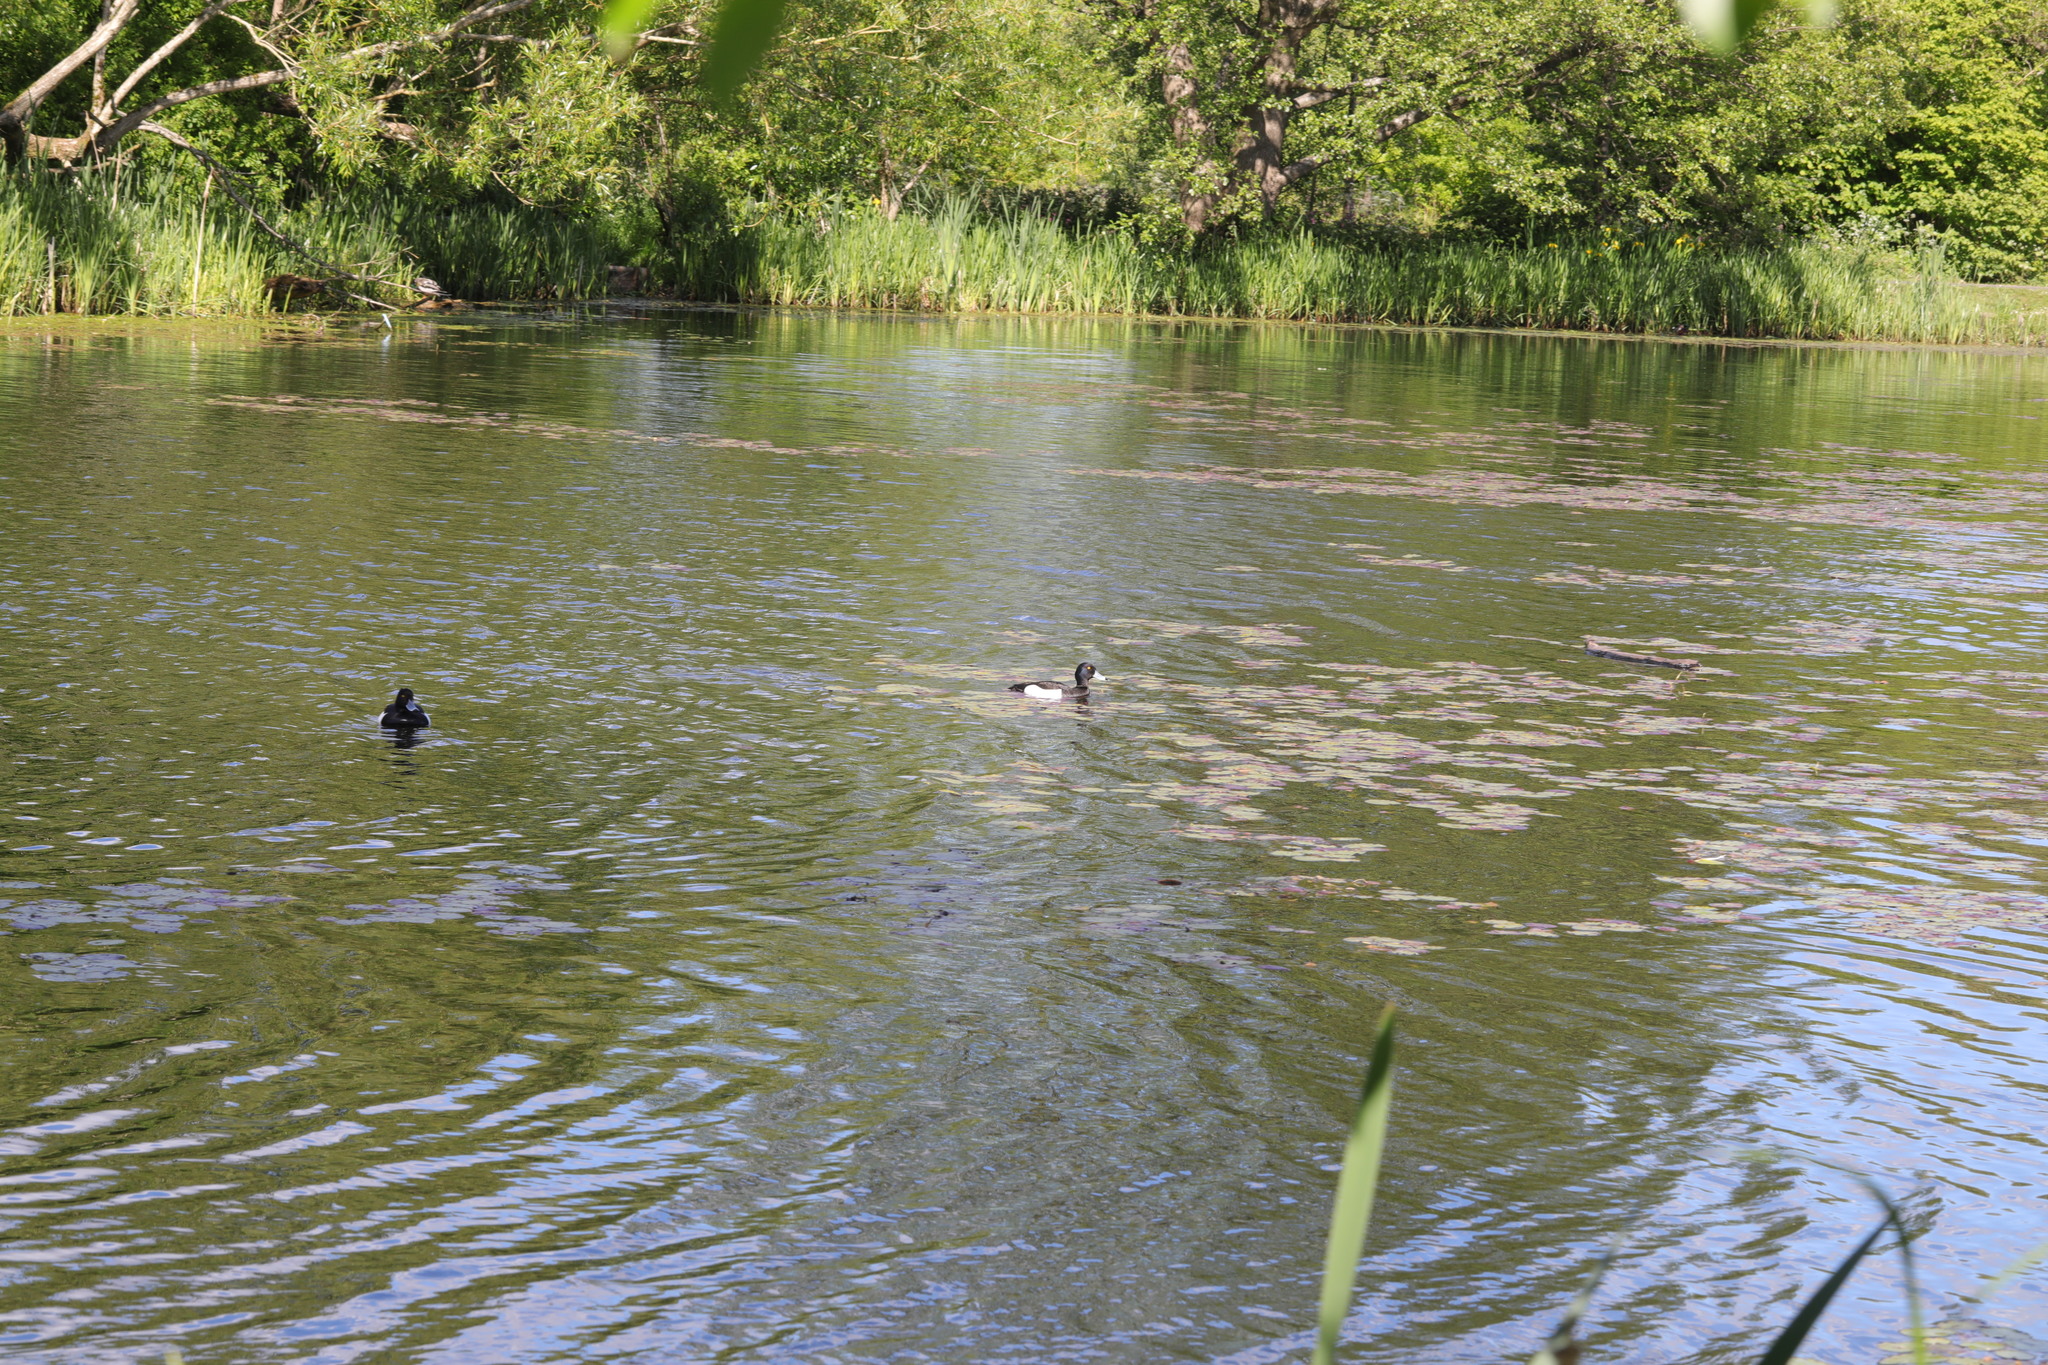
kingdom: Animalia
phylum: Chordata
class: Aves
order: Anseriformes
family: Anatidae
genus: Aythya
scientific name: Aythya fuligula
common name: Tufted duck
